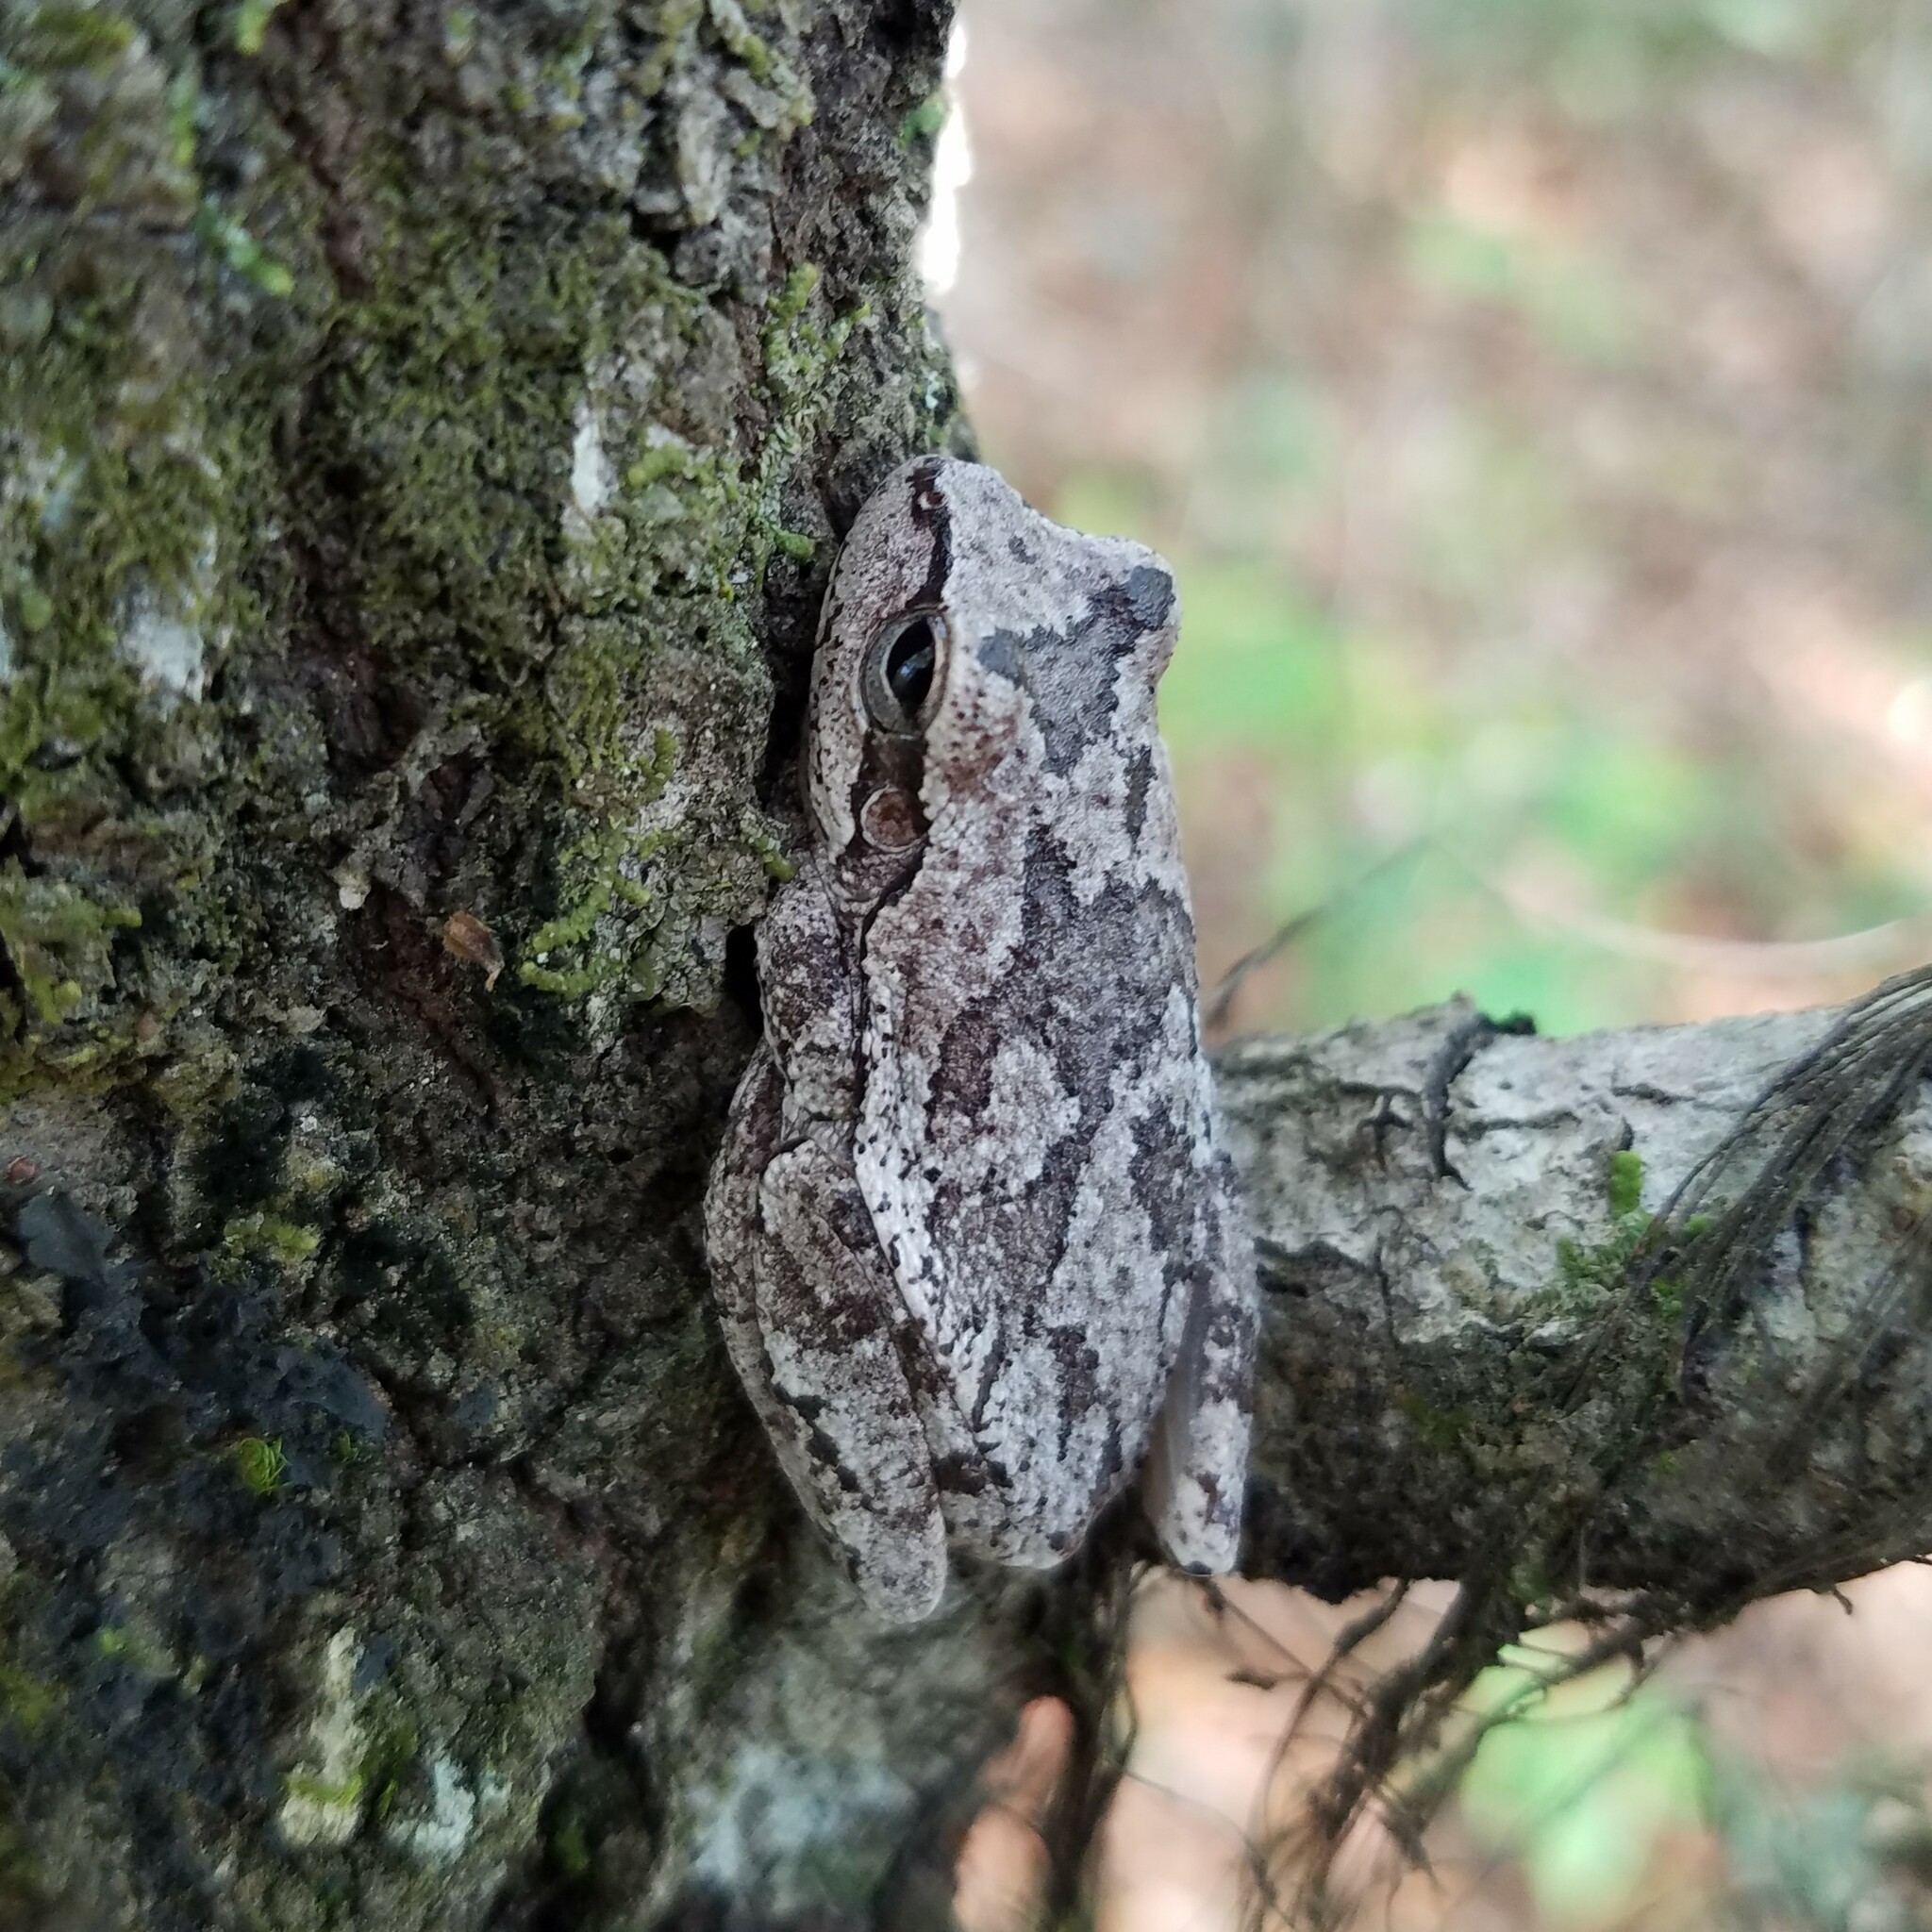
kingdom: Animalia
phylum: Chordata
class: Amphibia
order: Anura
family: Hylidae
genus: Hyla
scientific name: Hyla femoralis
